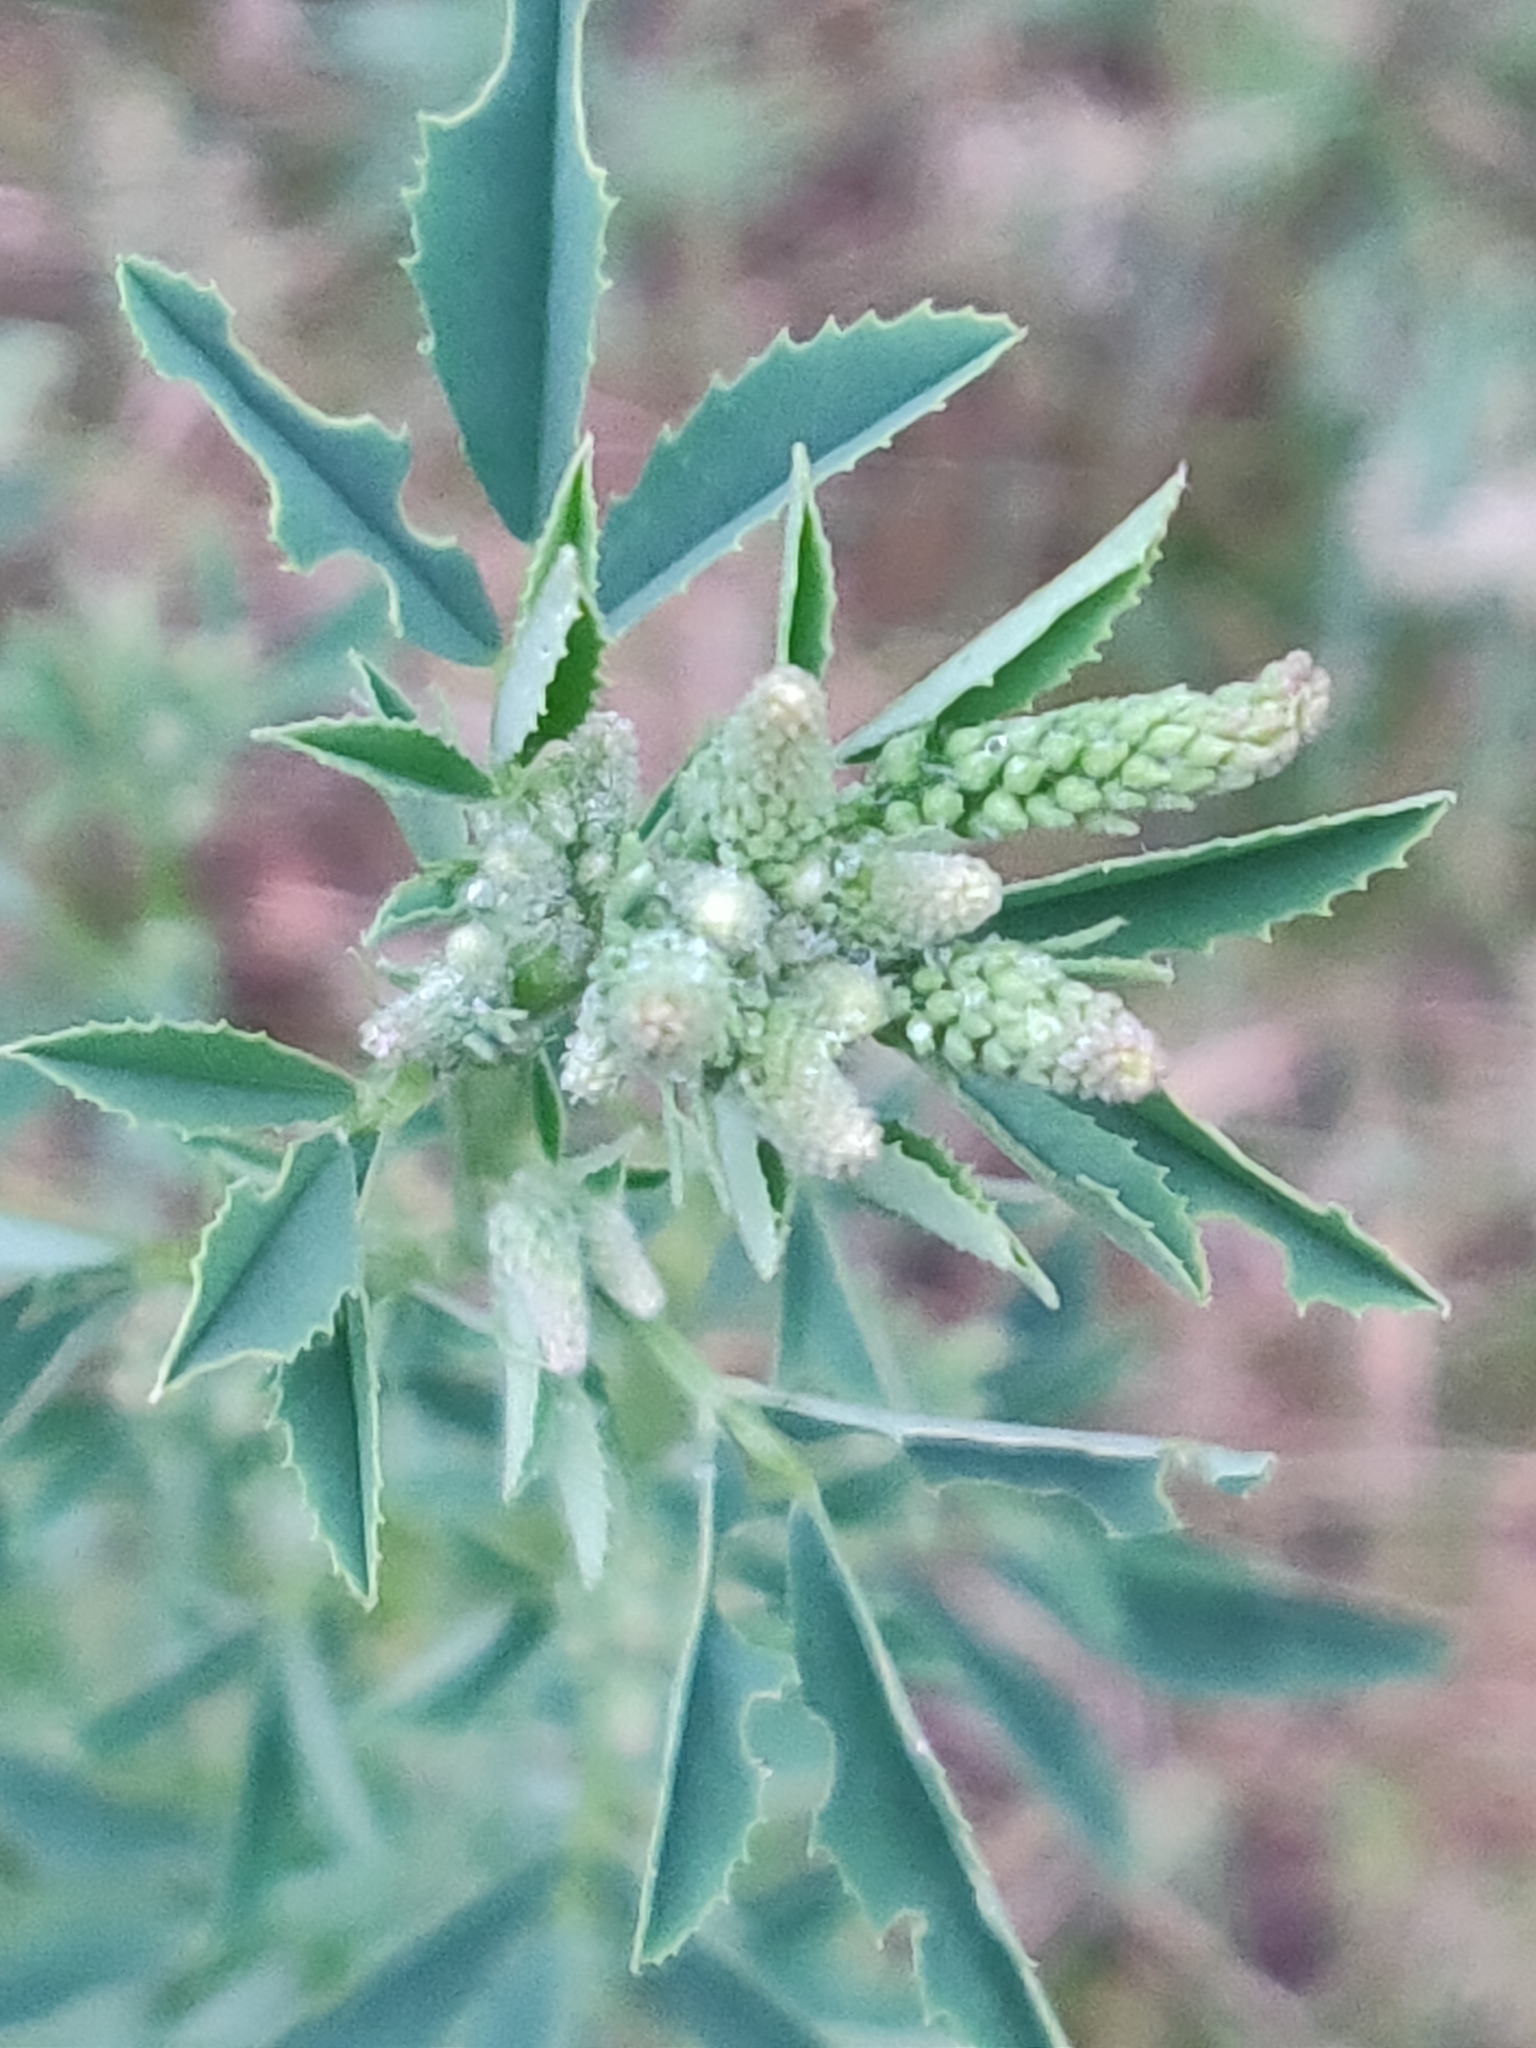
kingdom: Plantae
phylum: Tracheophyta
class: Magnoliopsida
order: Fabales
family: Fabaceae
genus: Melilotus
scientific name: Melilotus albus
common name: White melilot
